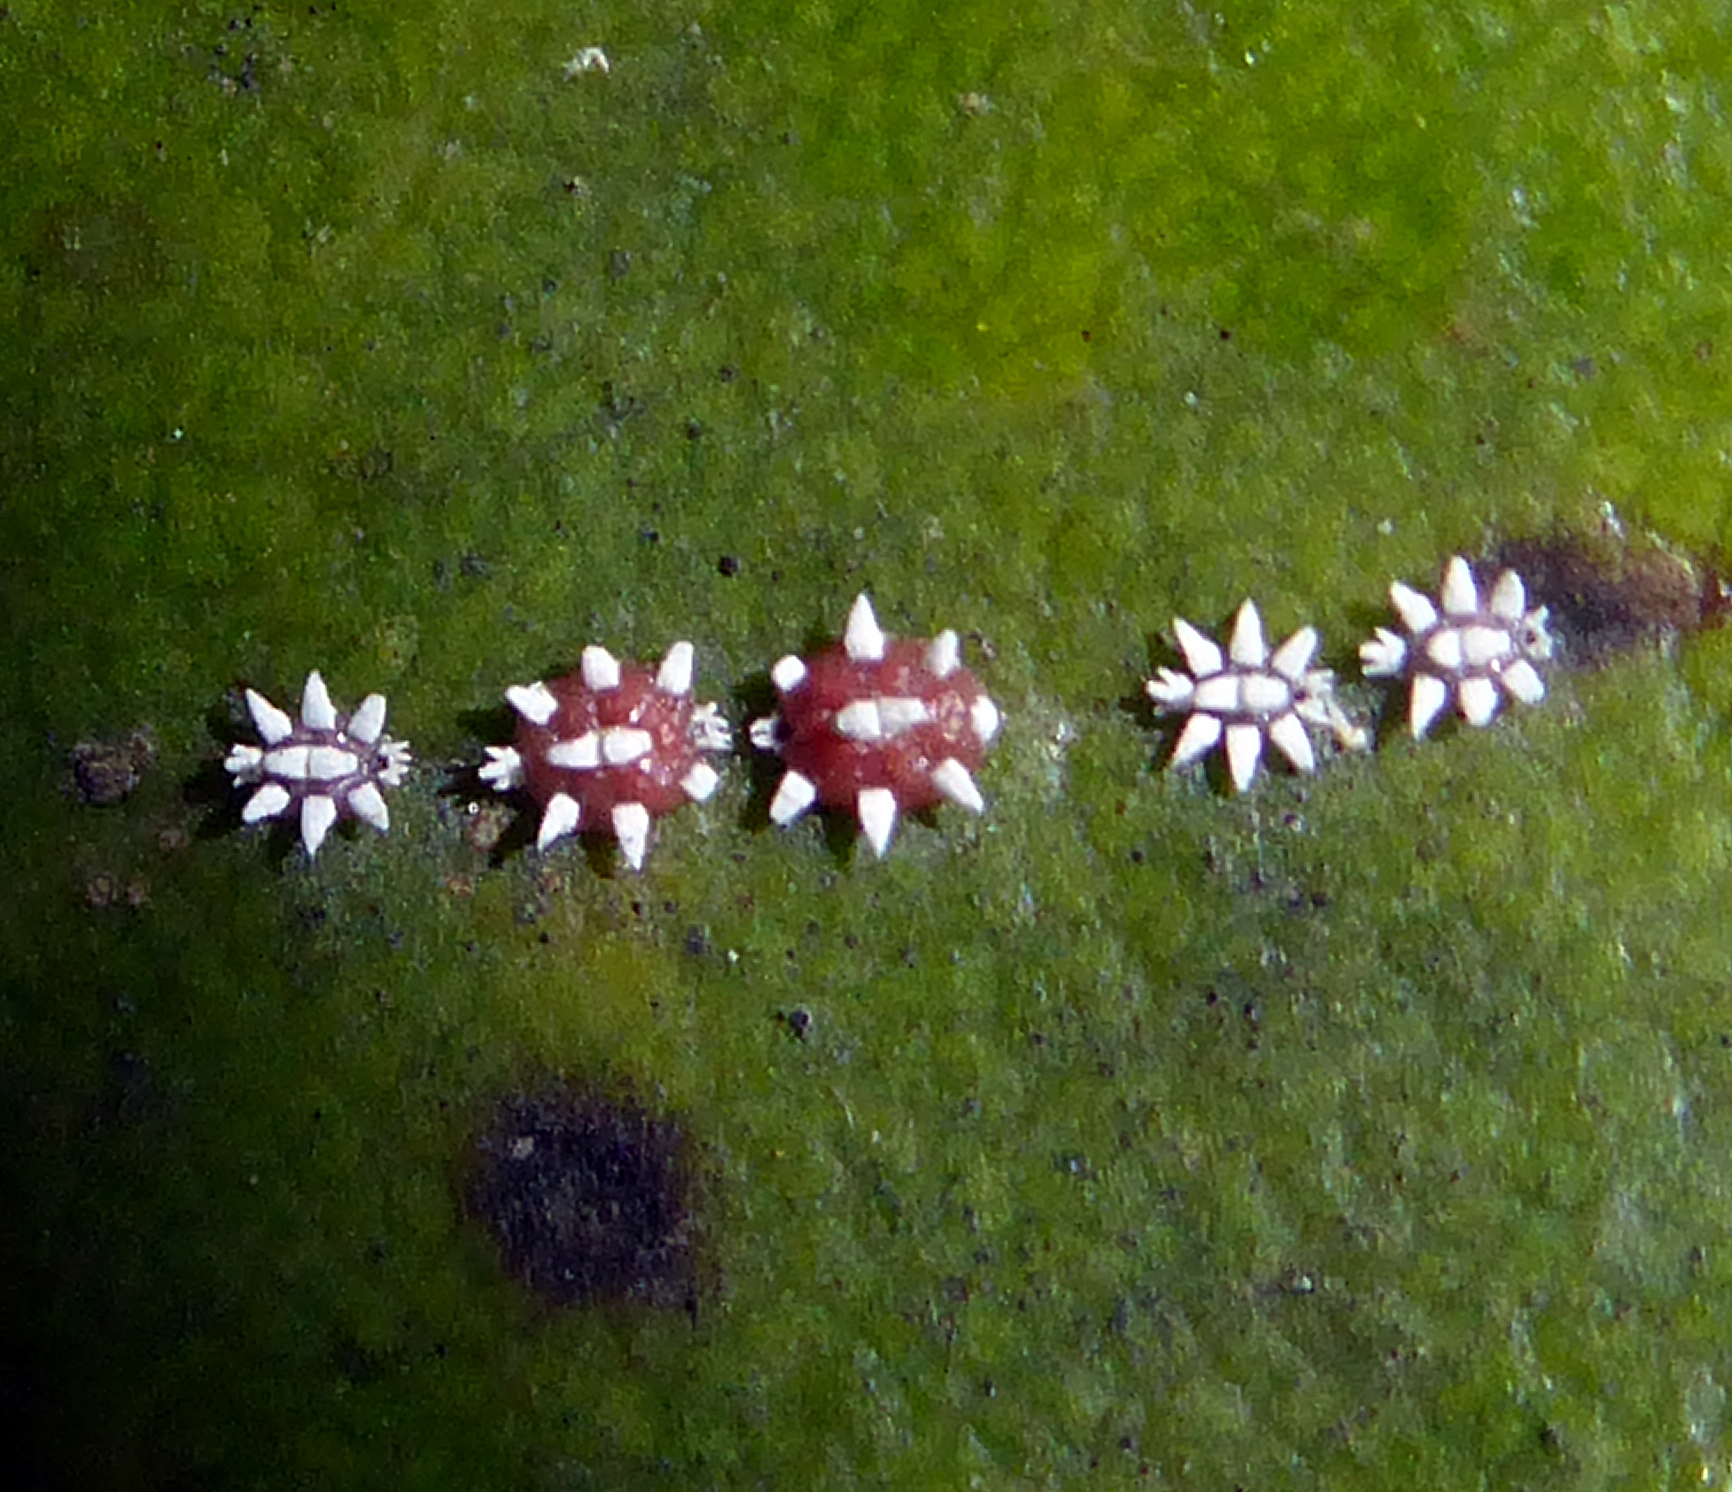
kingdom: Animalia
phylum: Arthropoda
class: Insecta
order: Hemiptera
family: Coccidae
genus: Ceroplastes
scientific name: Ceroplastes sinensis
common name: Hard wax scale
